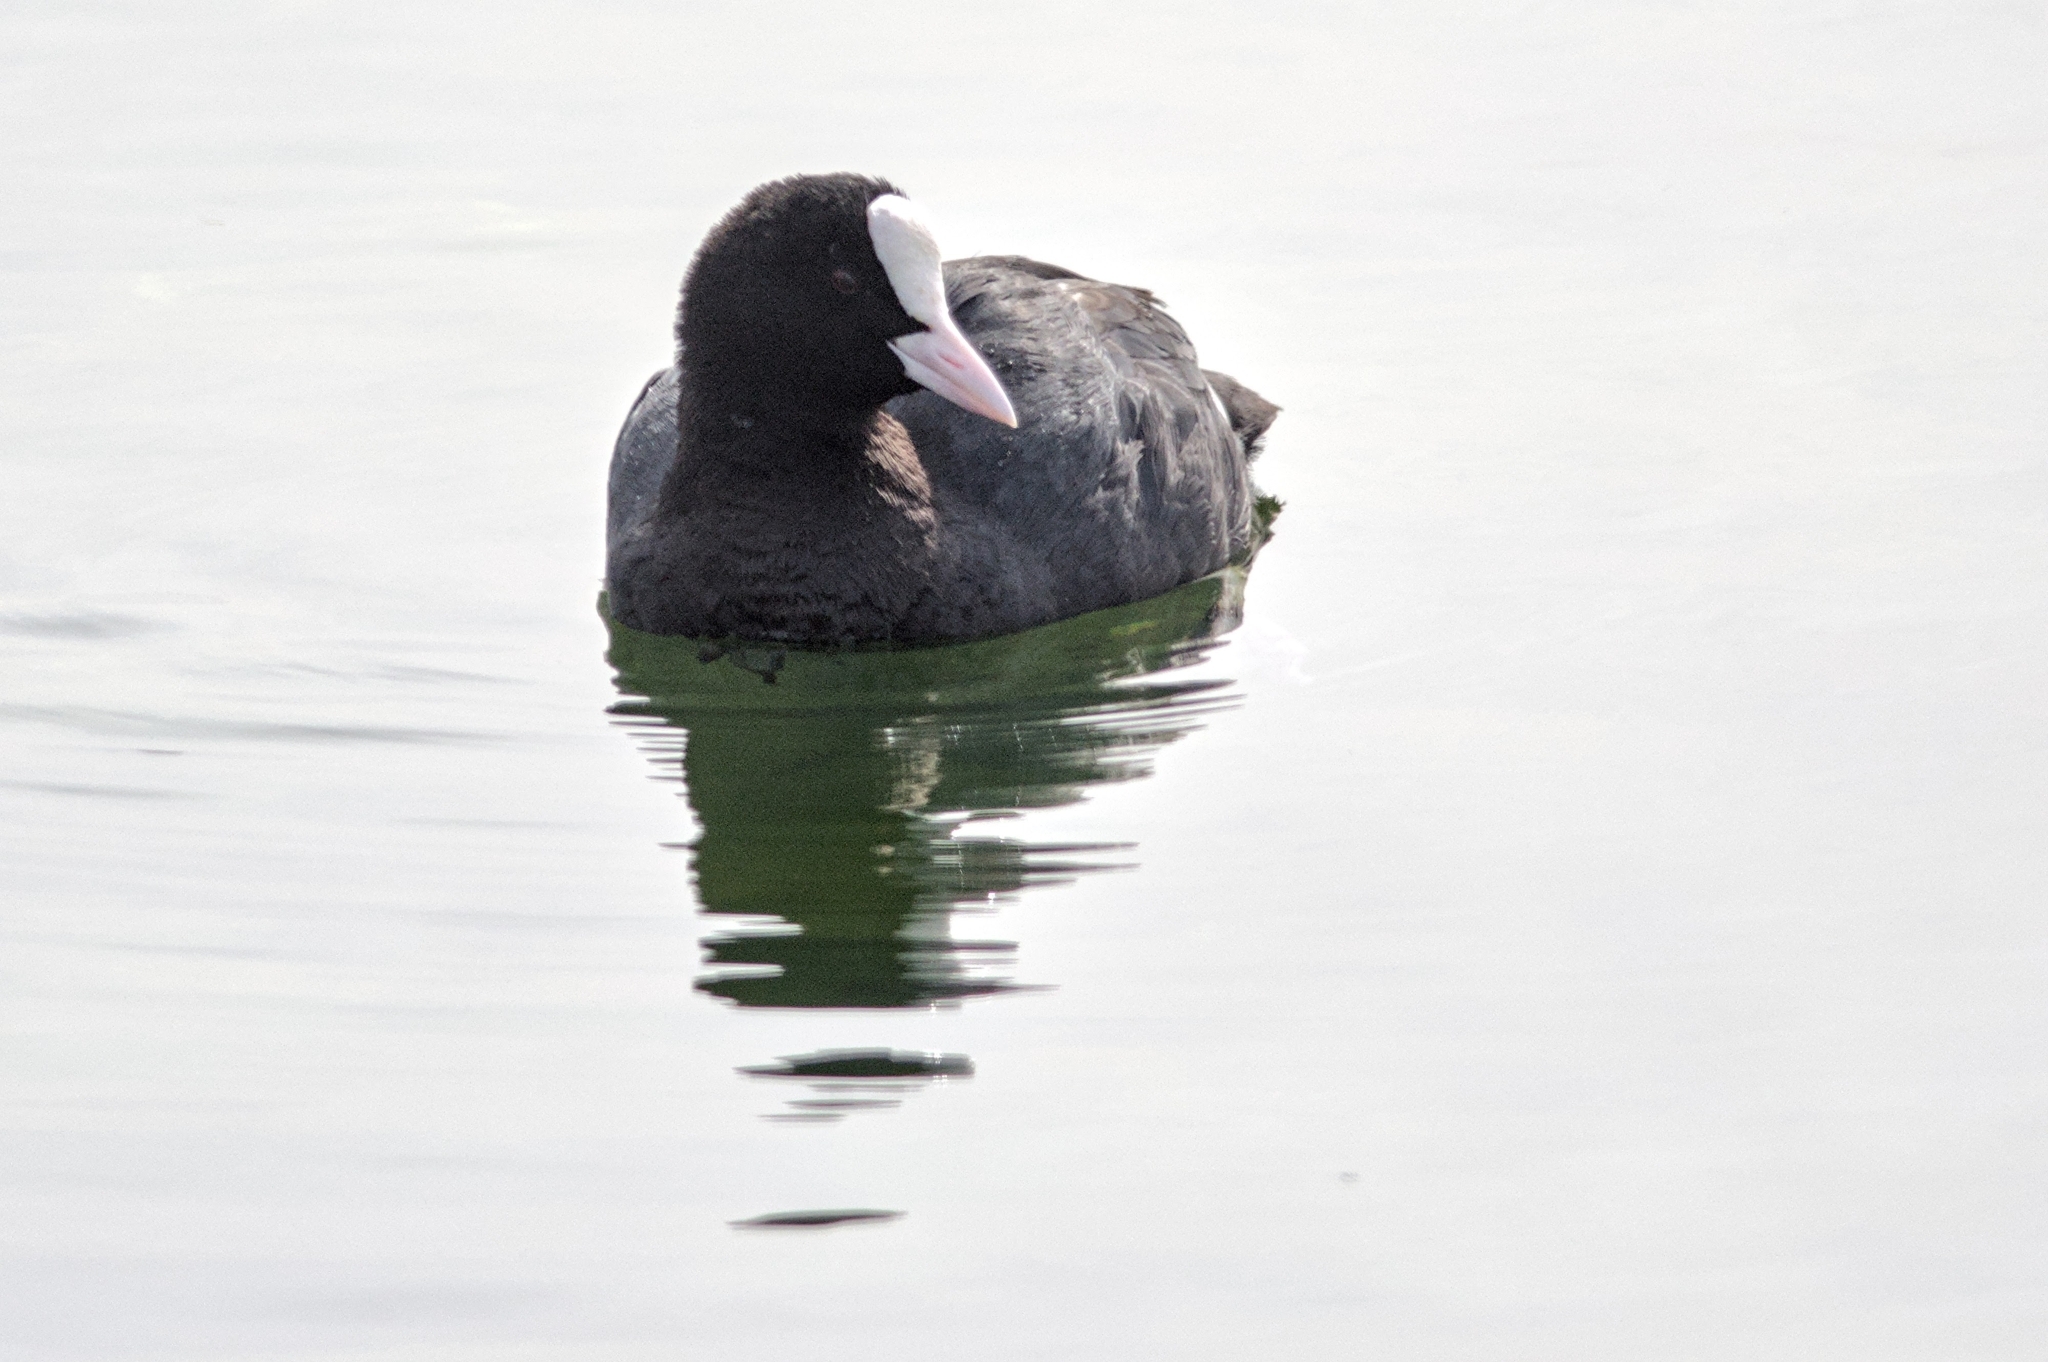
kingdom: Animalia
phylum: Chordata
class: Aves
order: Gruiformes
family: Rallidae
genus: Fulica
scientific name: Fulica atra
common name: Eurasian coot
